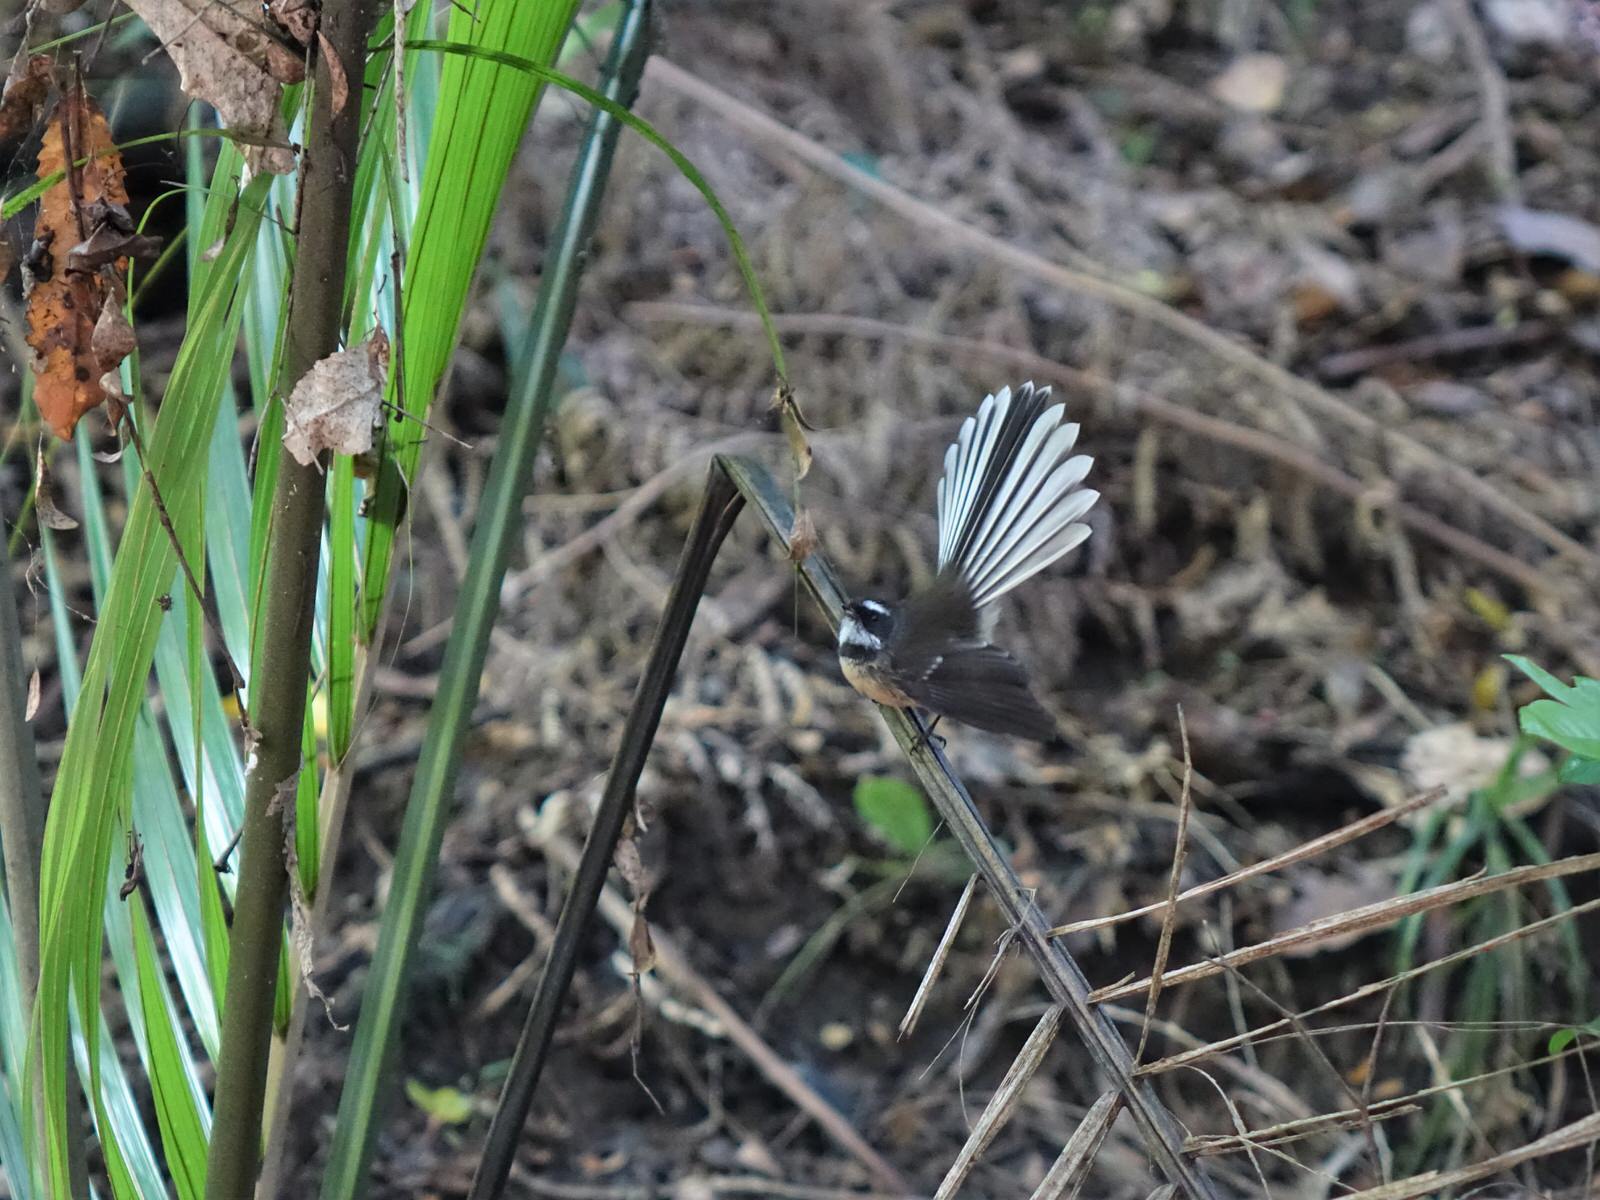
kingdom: Animalia
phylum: Chordata
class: Aves
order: Passeriformes
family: Rhipiduridae
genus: Rhipidura
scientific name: Rhipidura fuliginosa
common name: New zealand fantail
